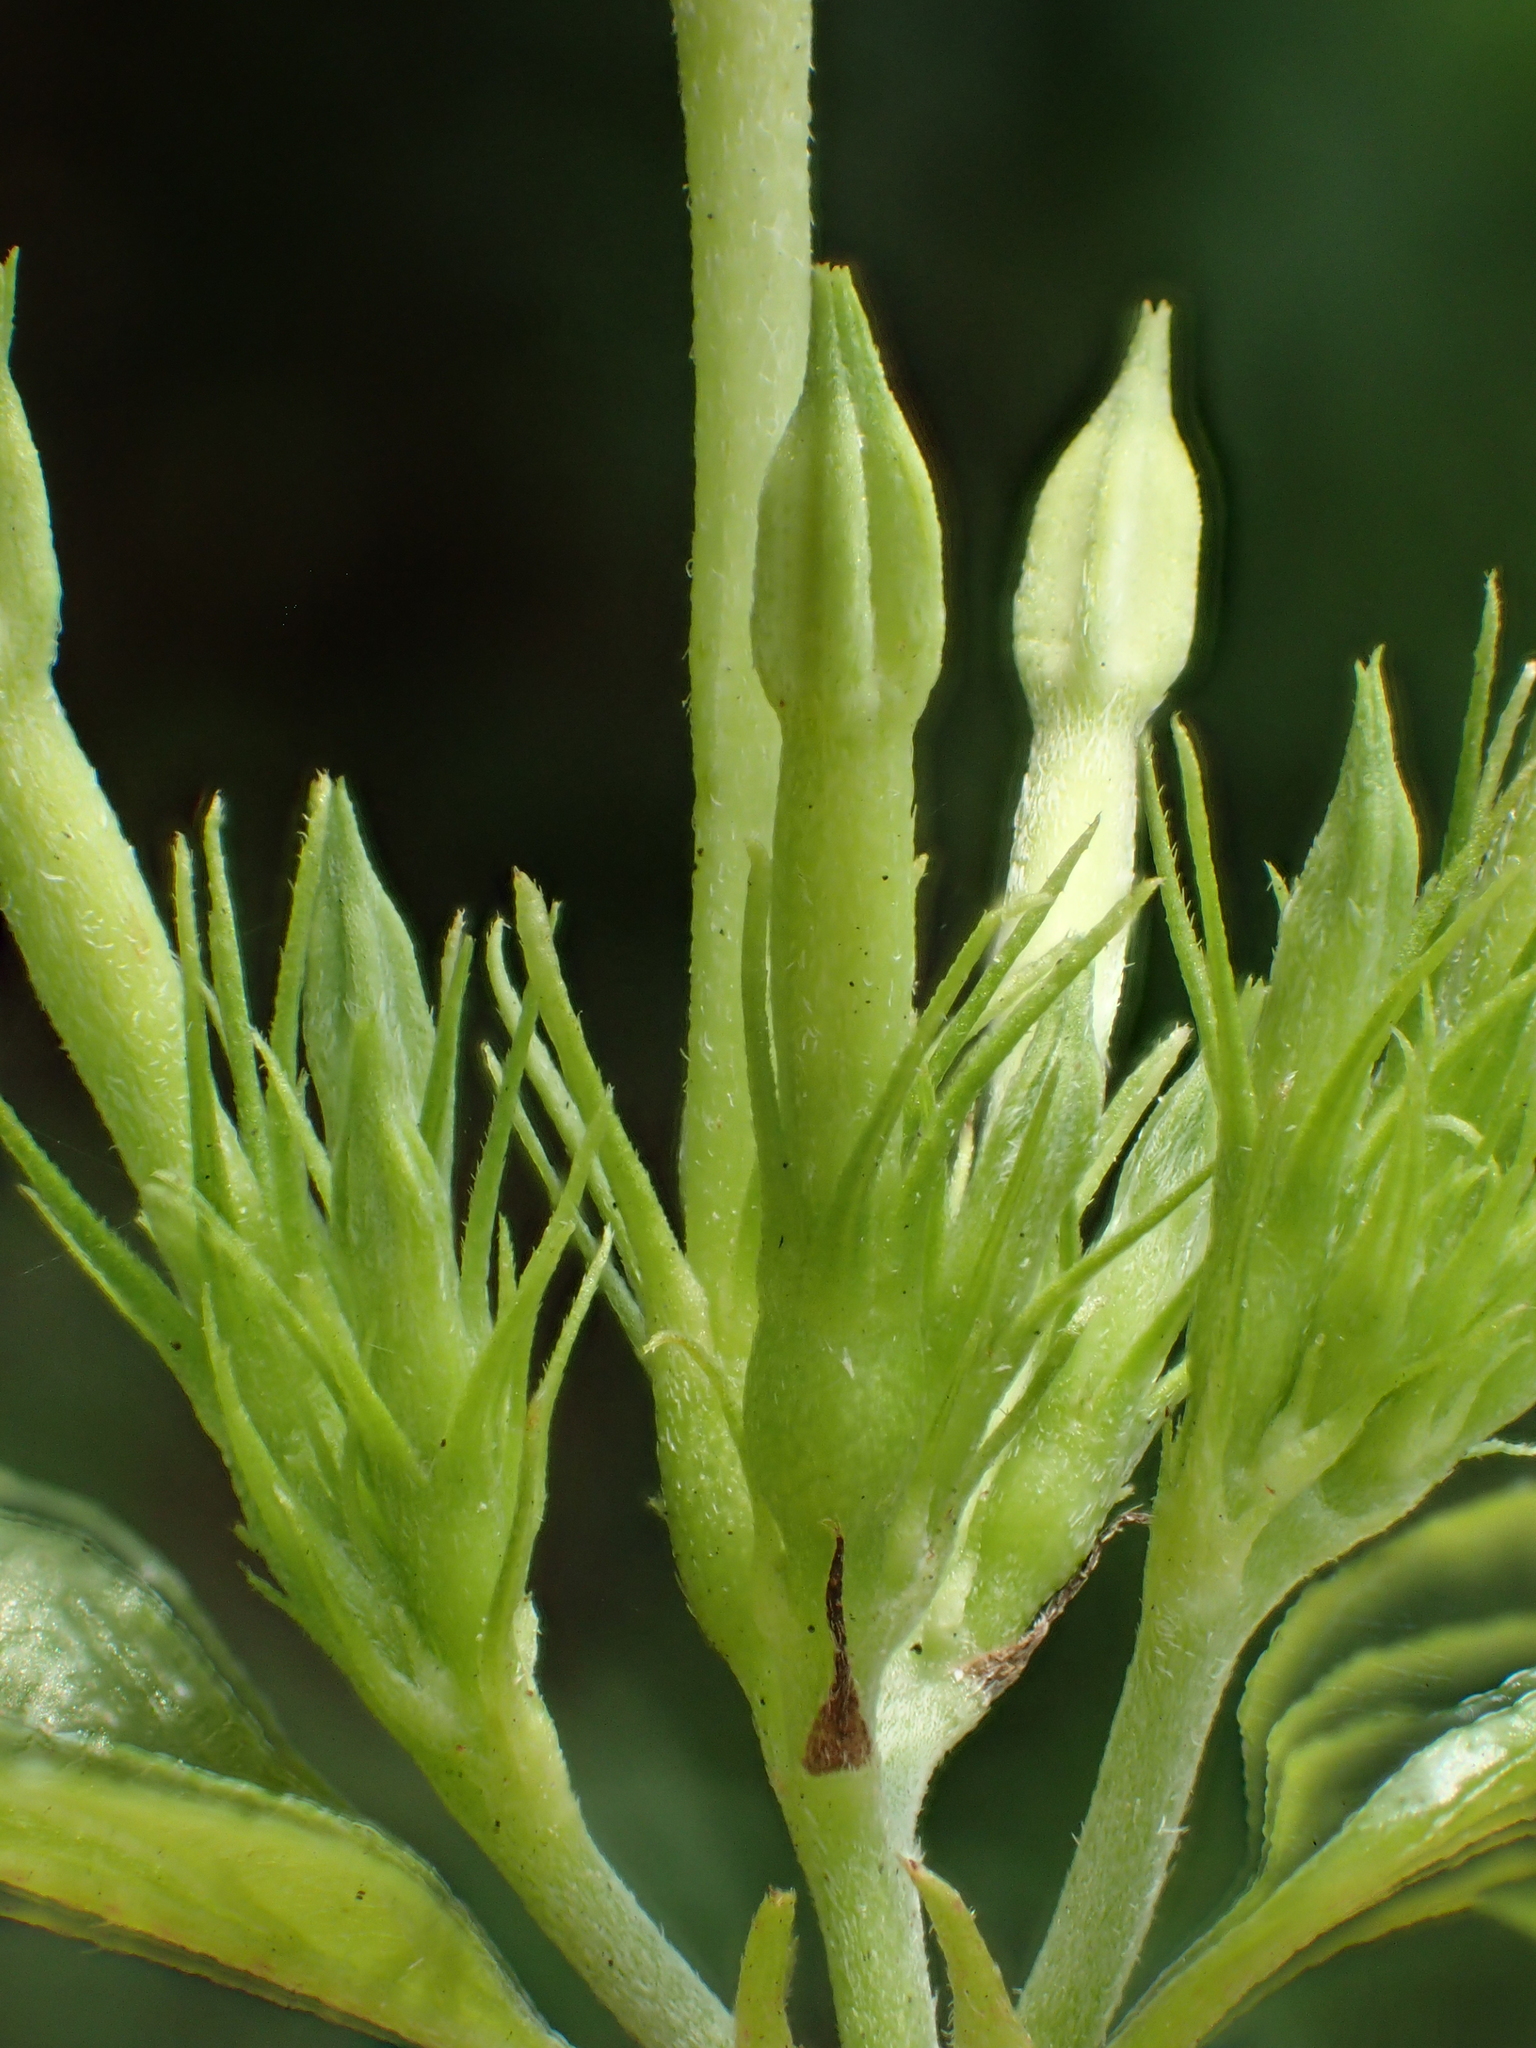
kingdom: Plantae
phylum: Tracheophyta
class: Magnoliopsida
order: Gentianales
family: Rubiaceae
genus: Mussaenda
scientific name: Mussaenda formosana
